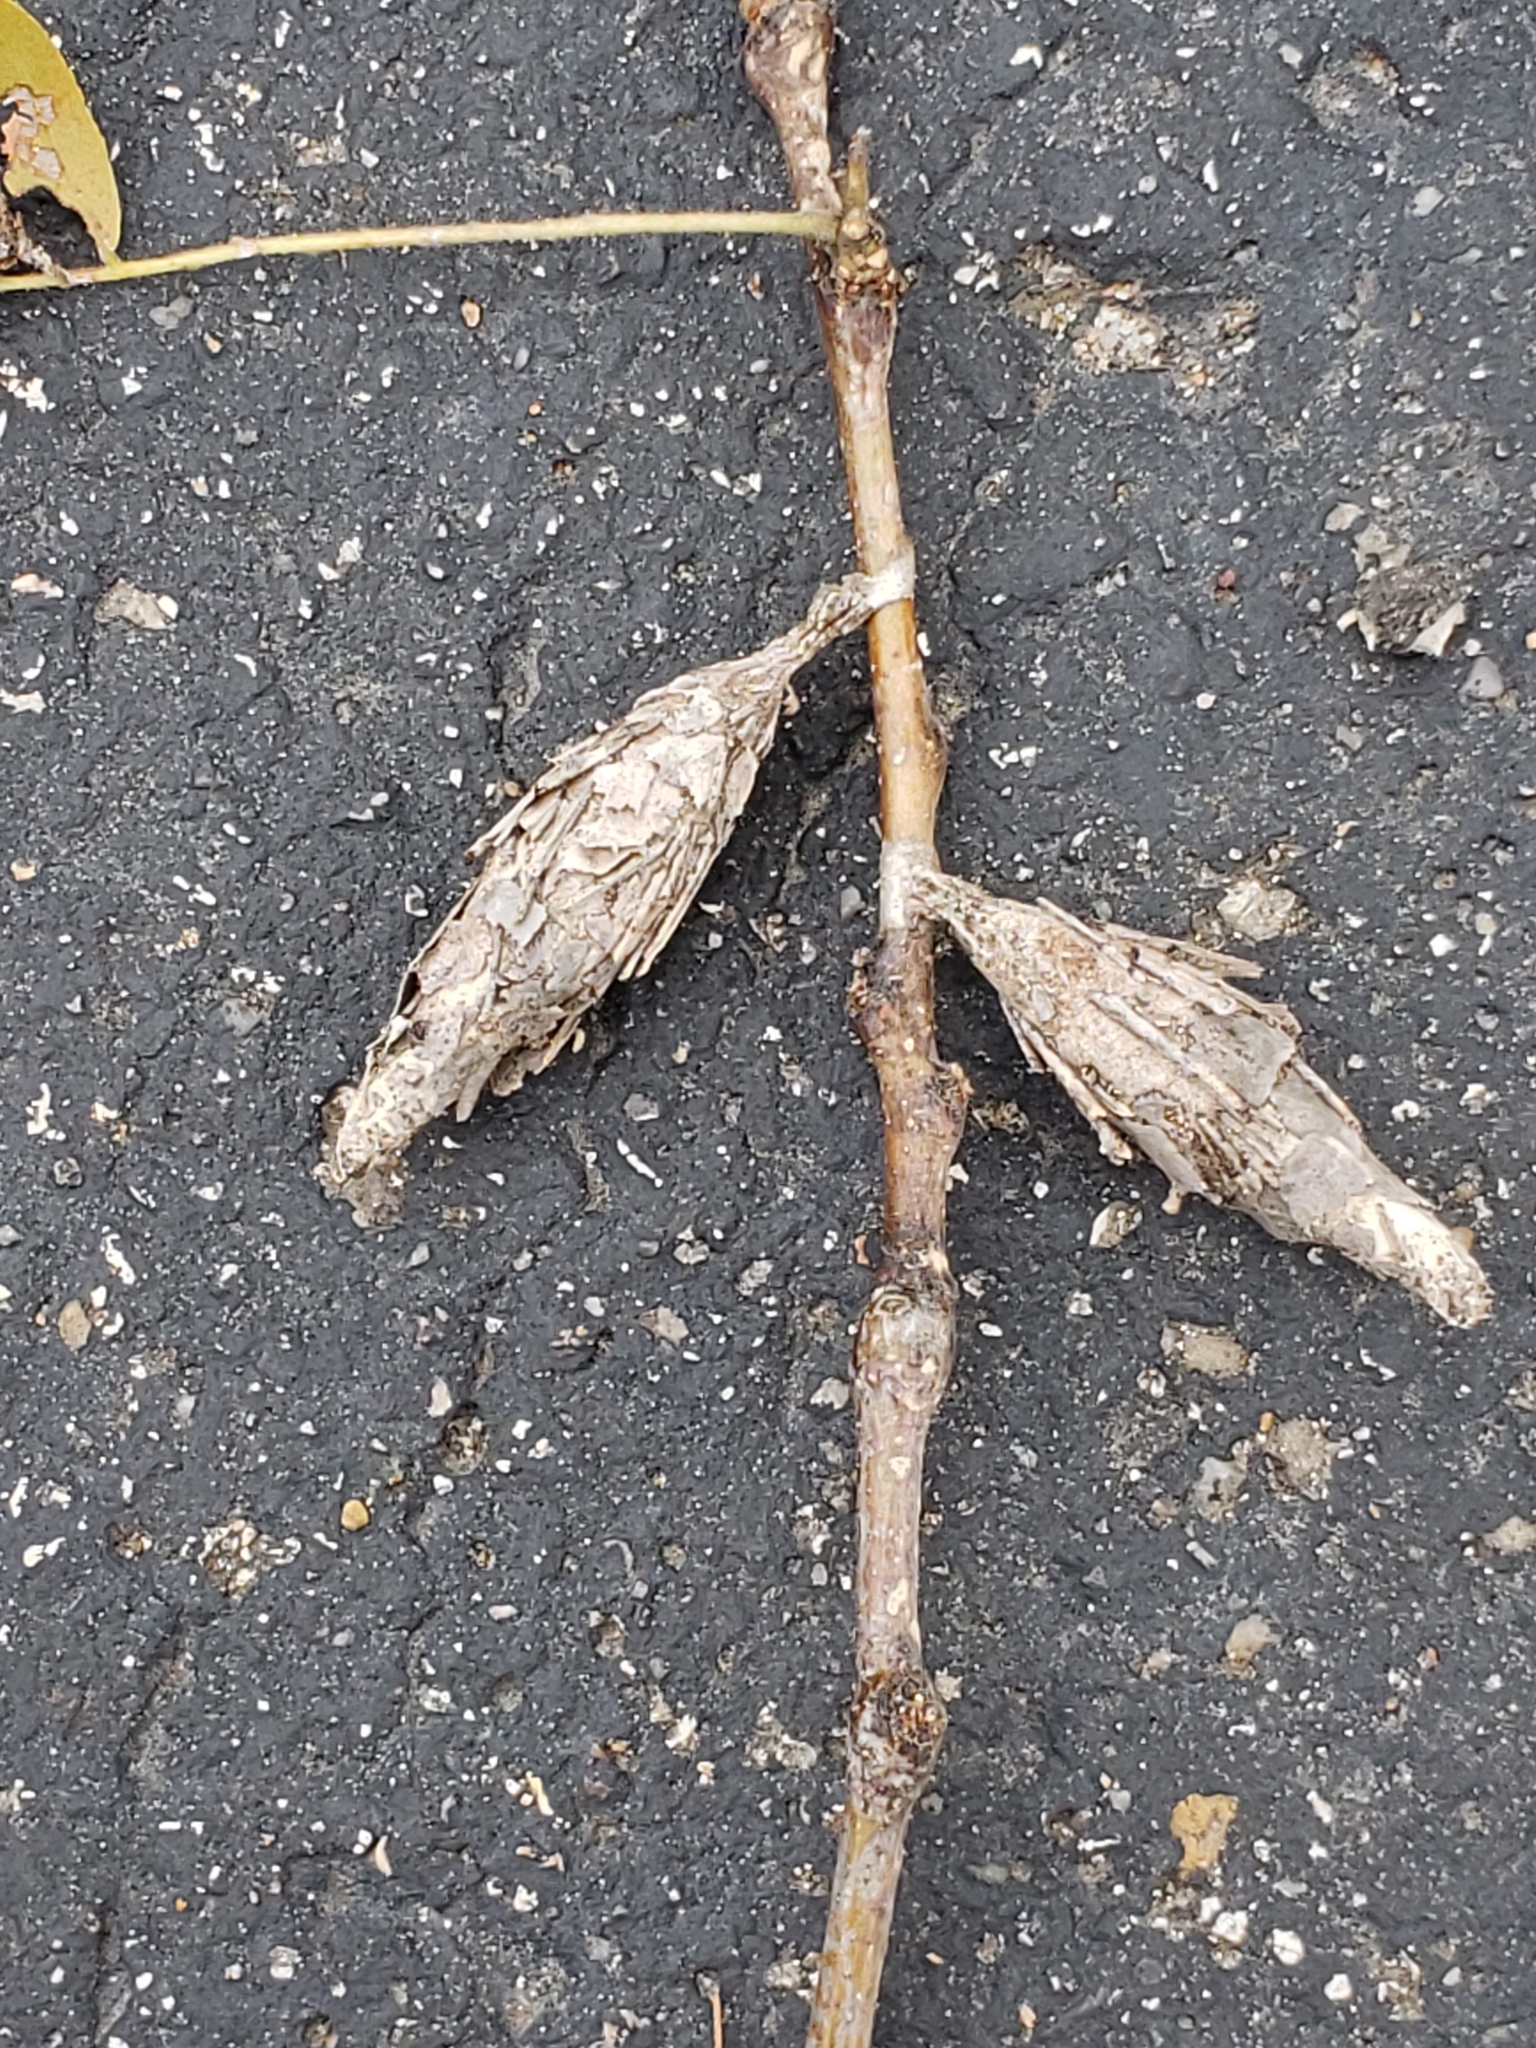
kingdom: Animalia
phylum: Arthropoda
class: Insecta
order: Lepidoptera
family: Psychidae
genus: Thyridopteryx
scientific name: Thyridopteryx ephemeraeformis
